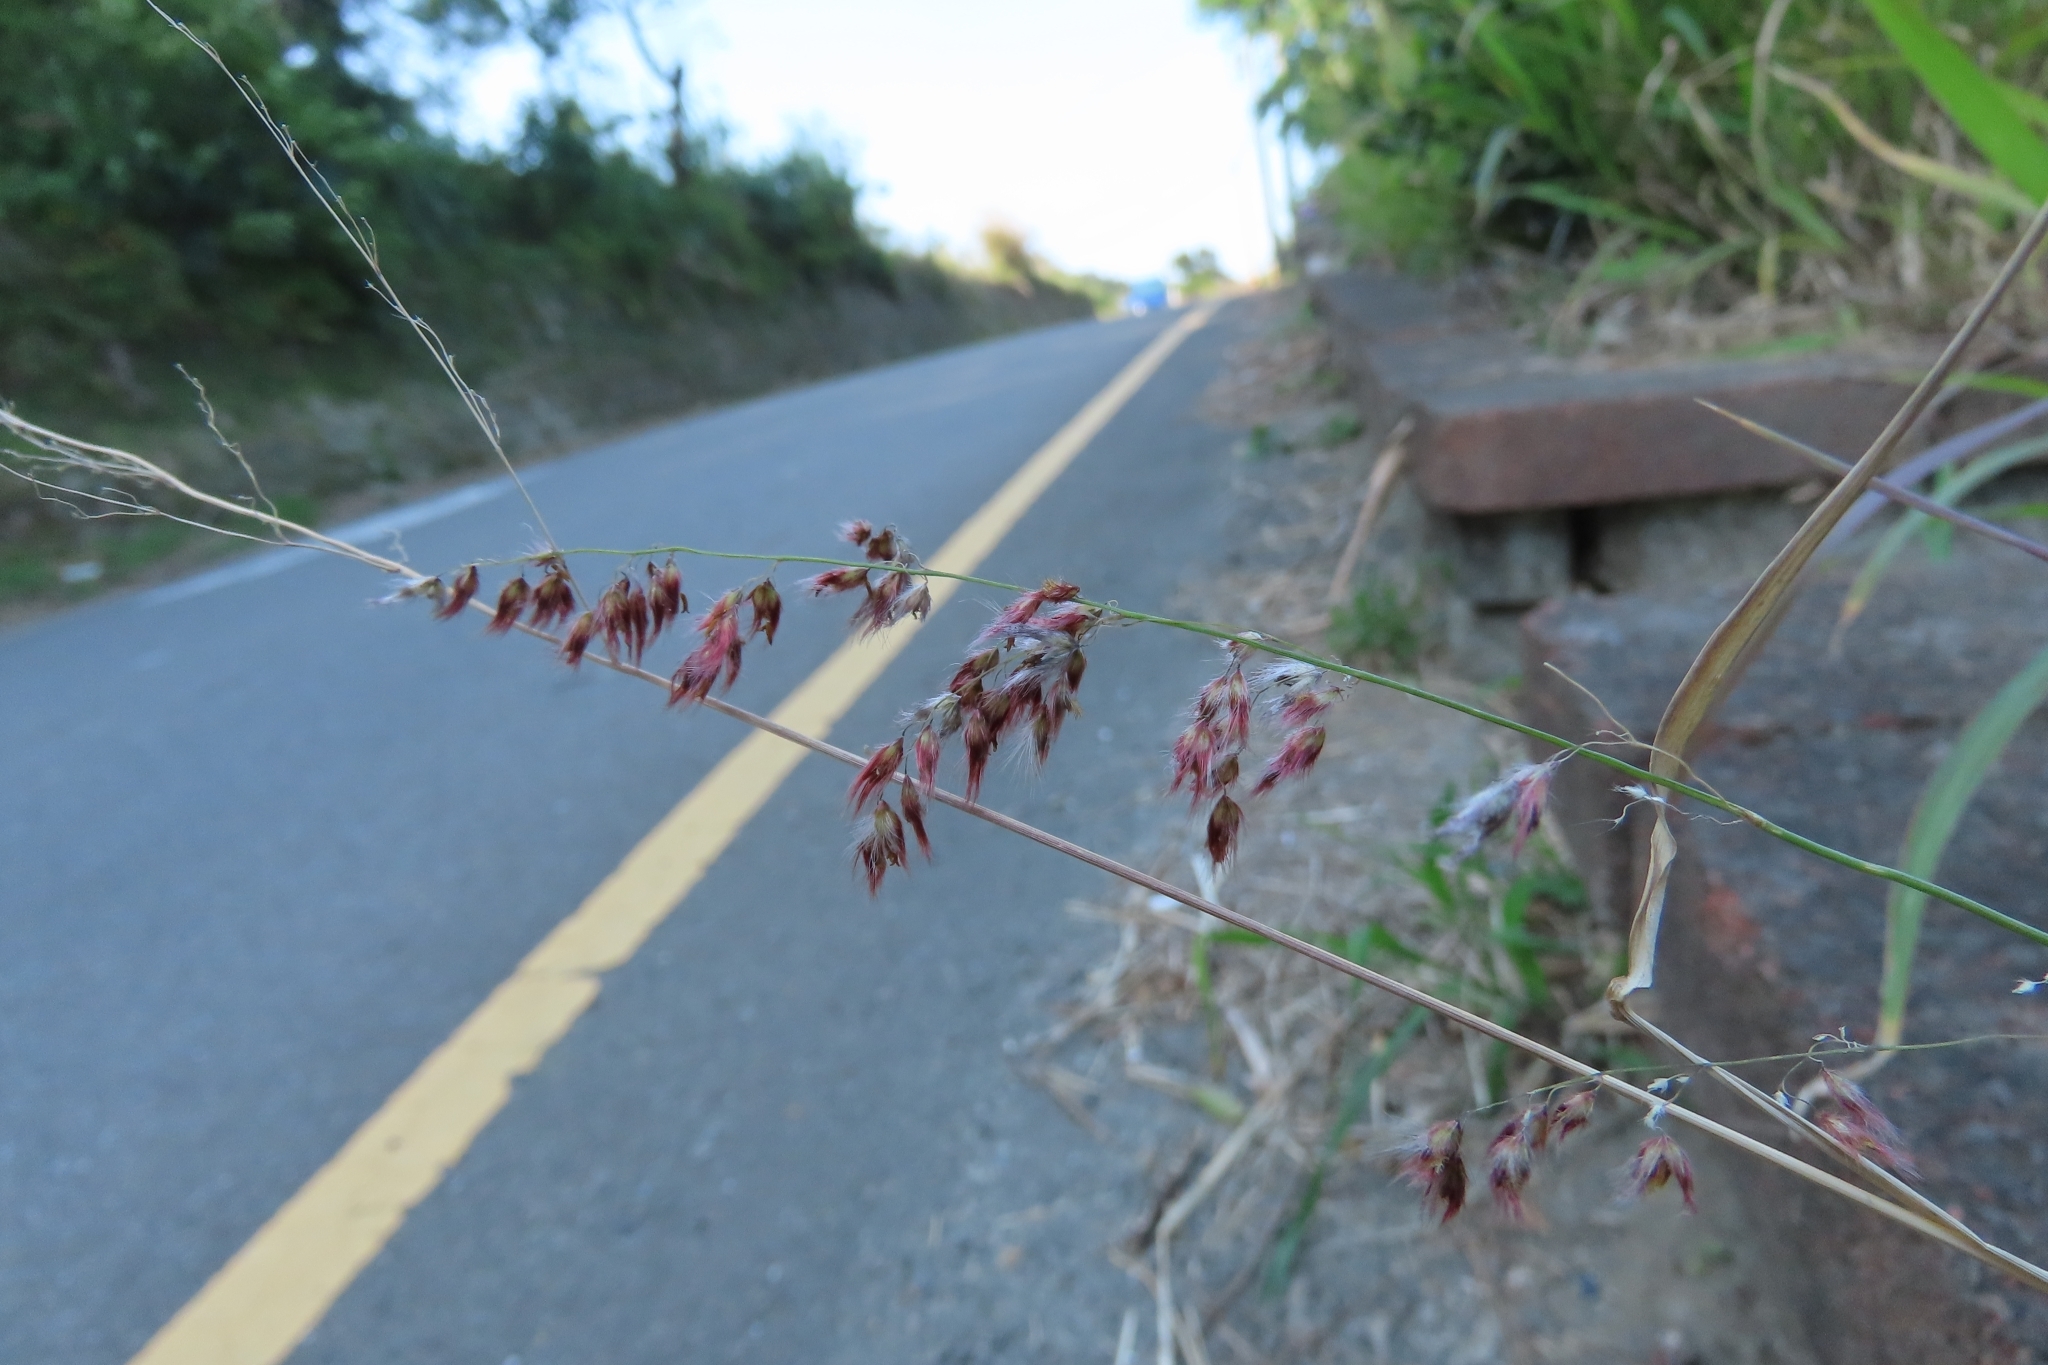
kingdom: Plantae
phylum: Tracheophyta
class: Liliopsida
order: Poales
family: Poaceae
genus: Melinis
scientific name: Melinis repens
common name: Rose natal grass
